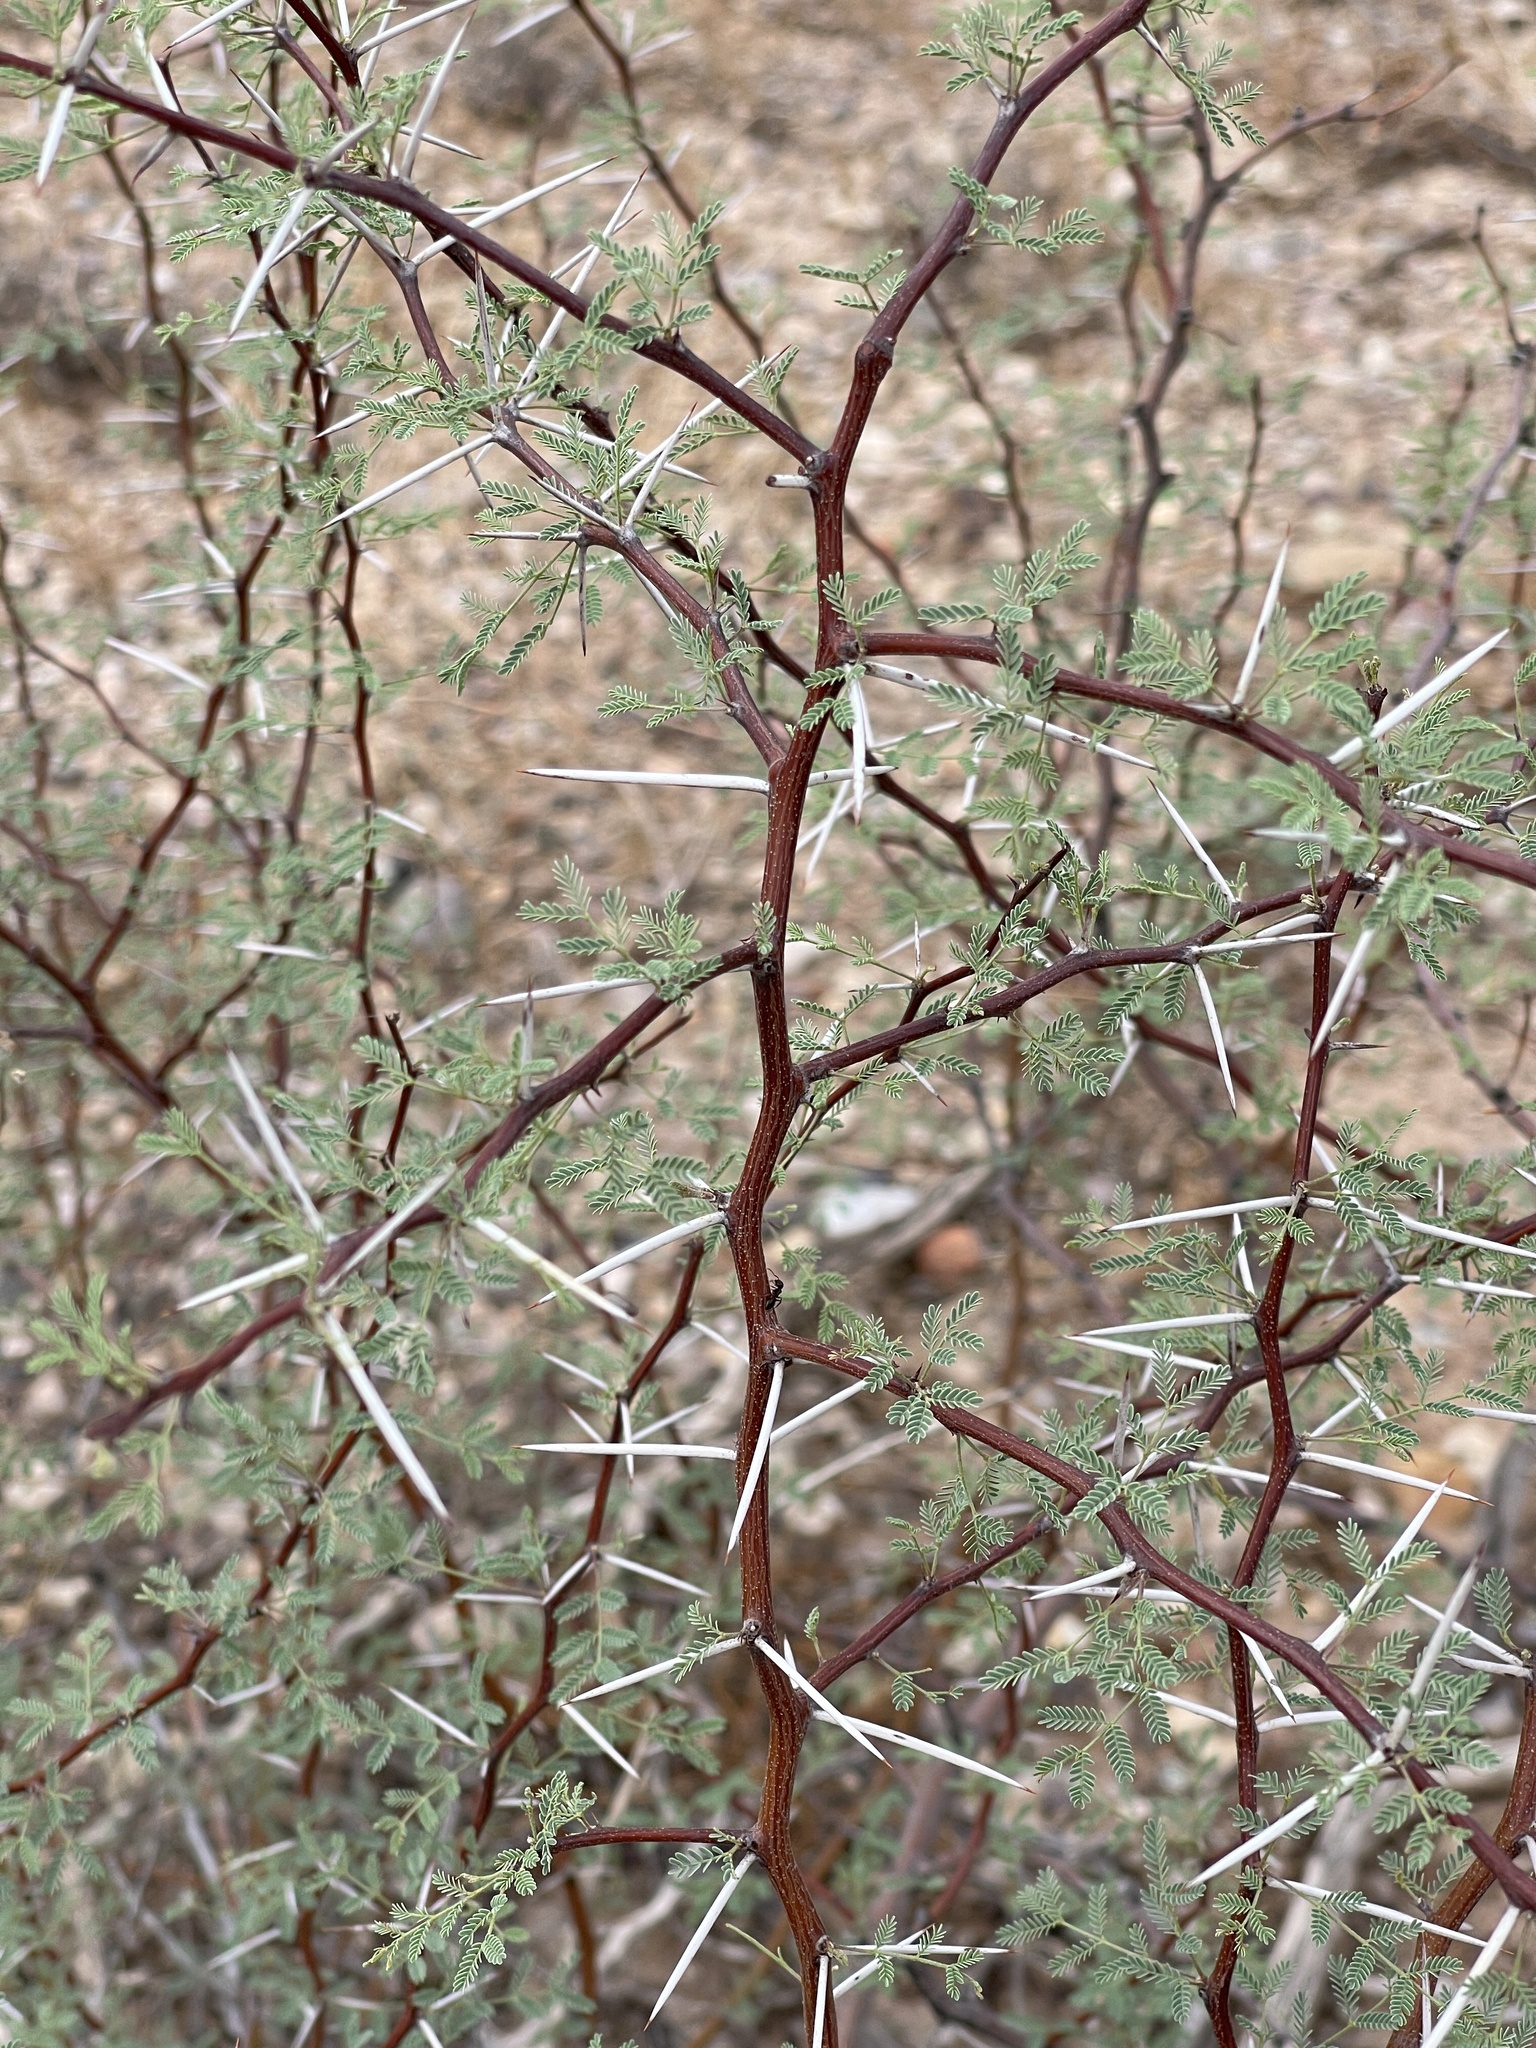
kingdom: Plantae
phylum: Tracheophyta
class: Magnoliopsida
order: Fabales
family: Fabaceae
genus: Vachellia
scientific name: Vachellia constricta
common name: Mescat acacia
